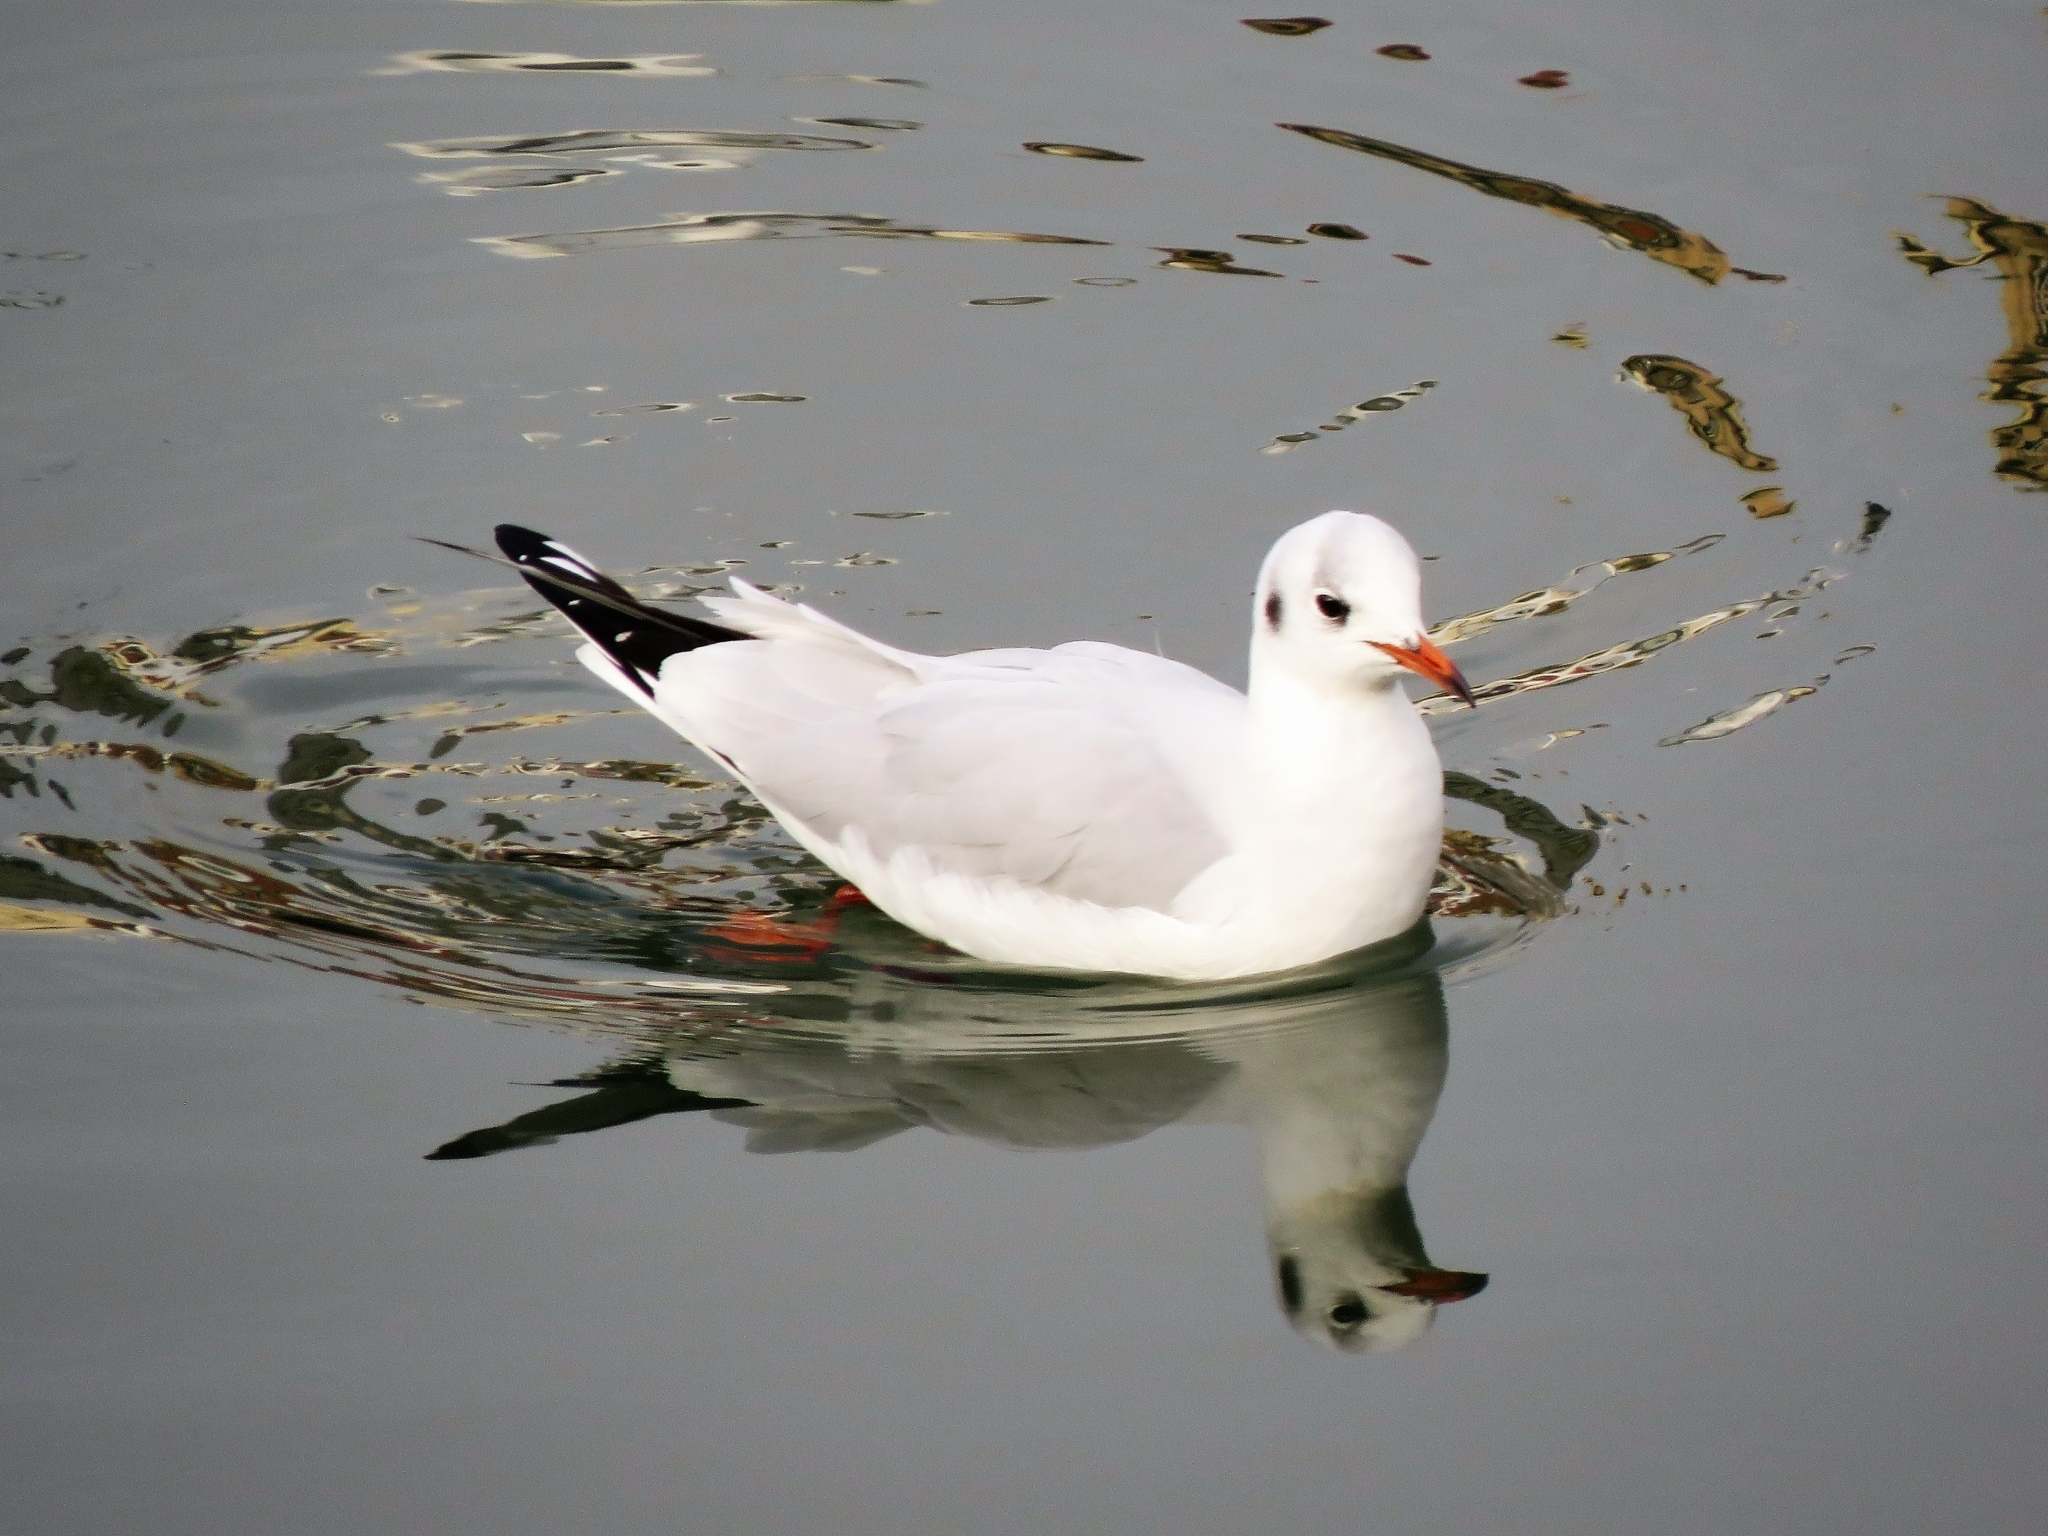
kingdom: Animalia
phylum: Chordata
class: Aves
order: Charadriiformes
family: Laridae
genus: Chroicocephalus
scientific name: Chroicocephalus ridibundus
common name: Black-headed gull
